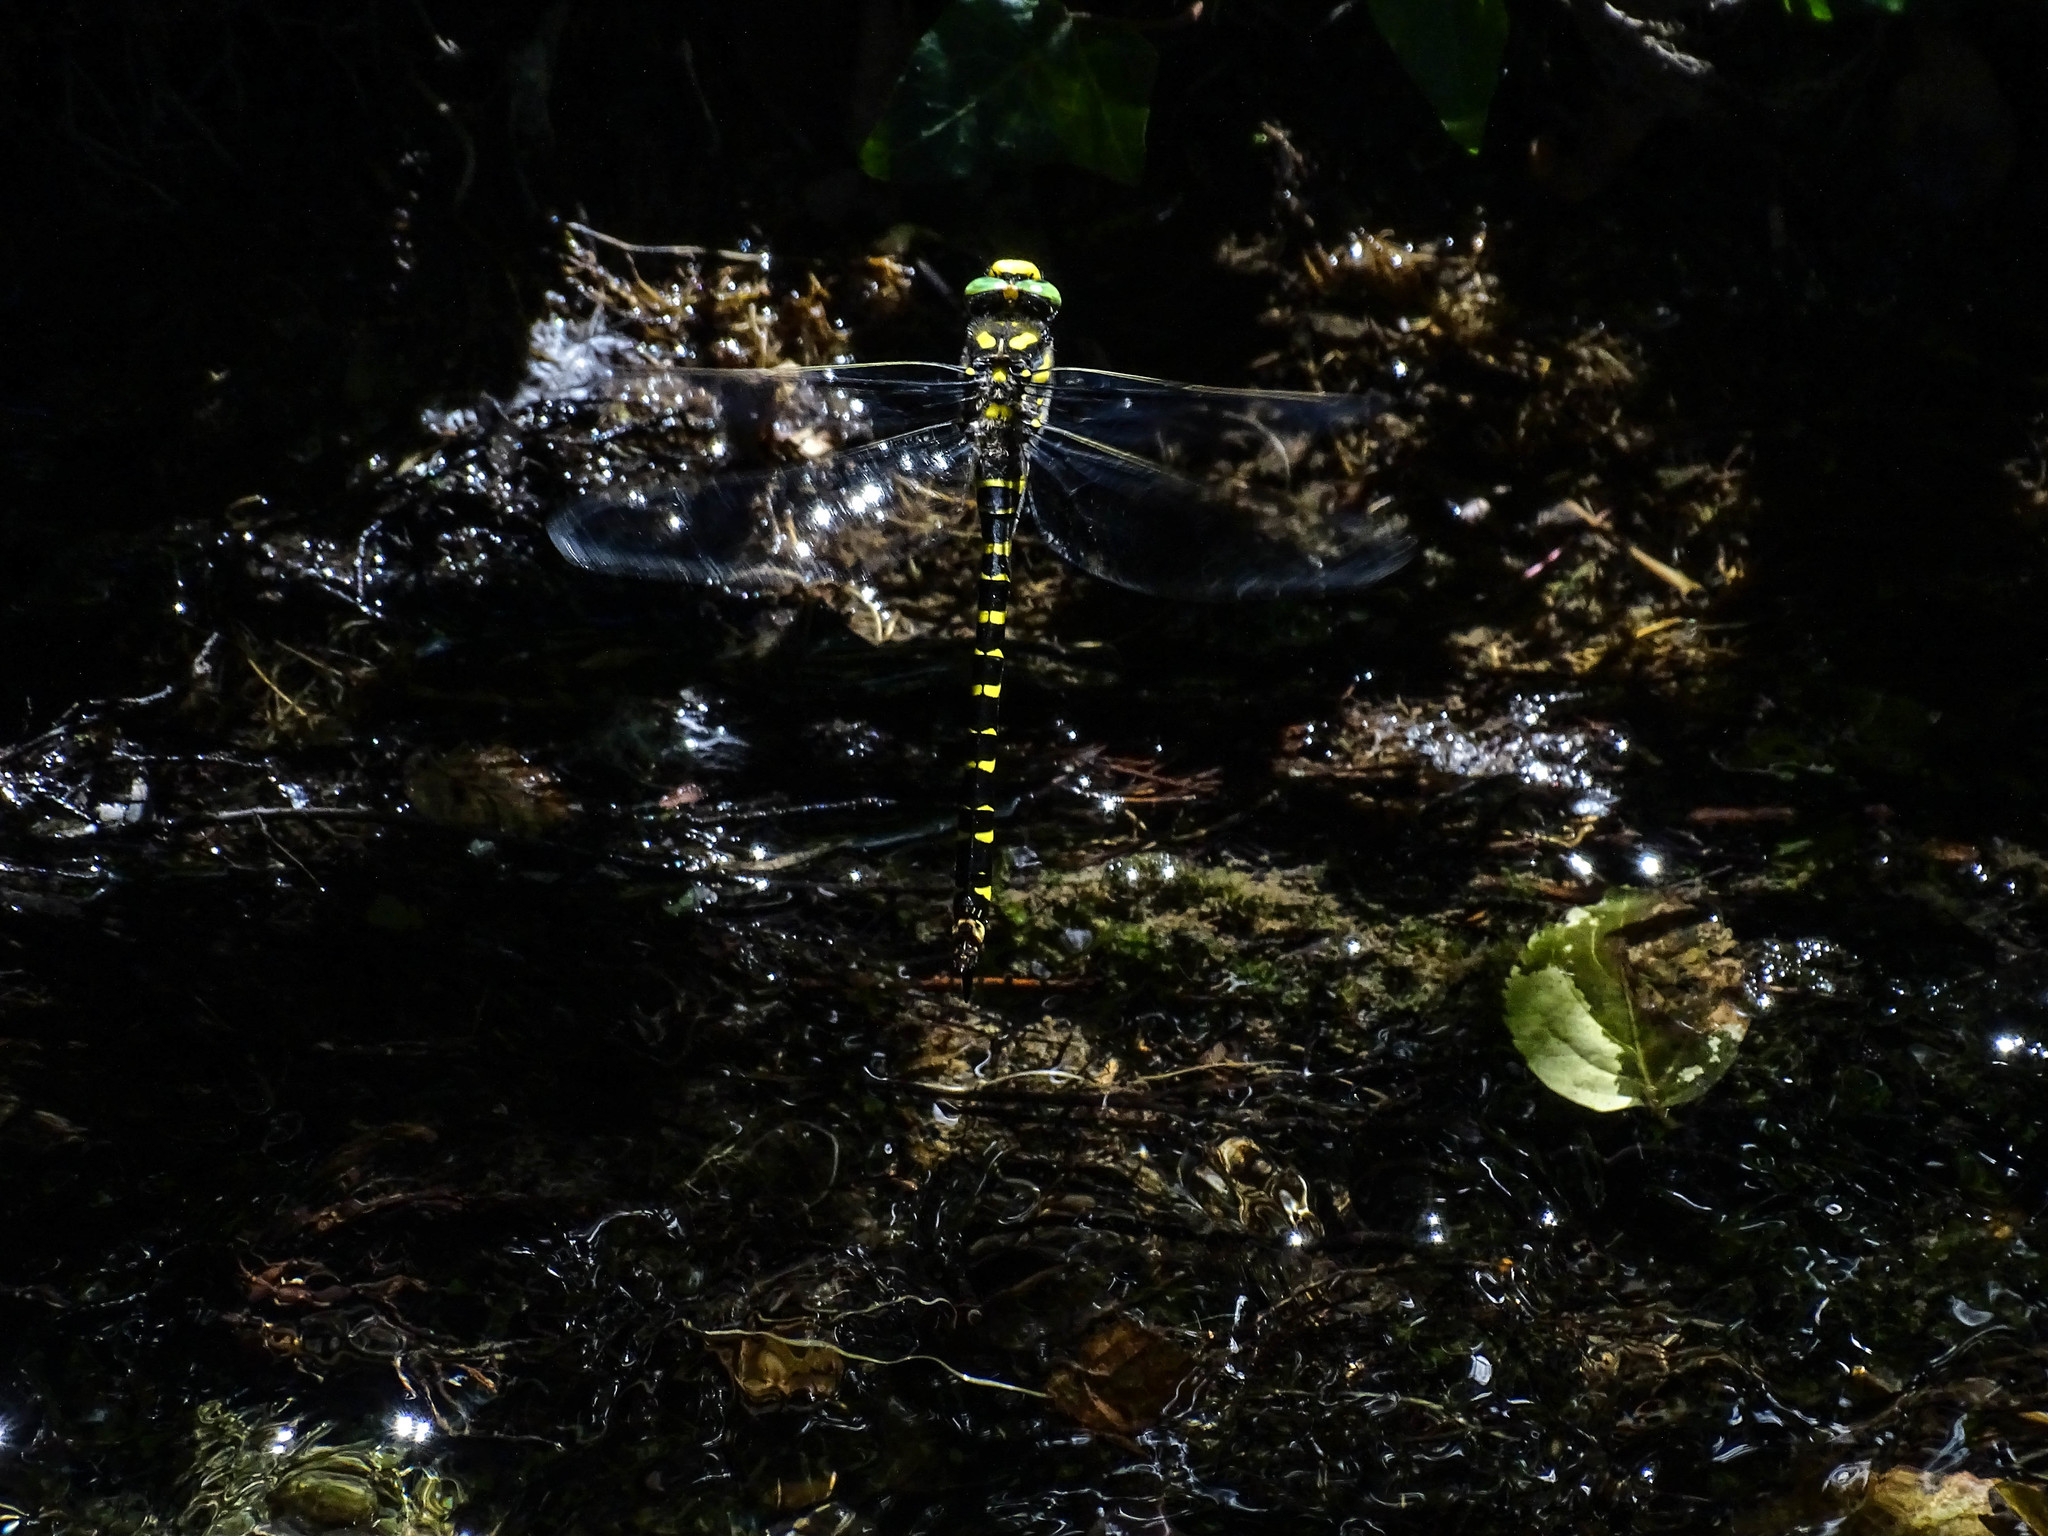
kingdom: Animalia
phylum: Arthropoda
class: Insecta
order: Odonata
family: Cordulegastridae
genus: Cordulegaster
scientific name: Cordulegaster boltonii
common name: Golden-ringed dragonfly
